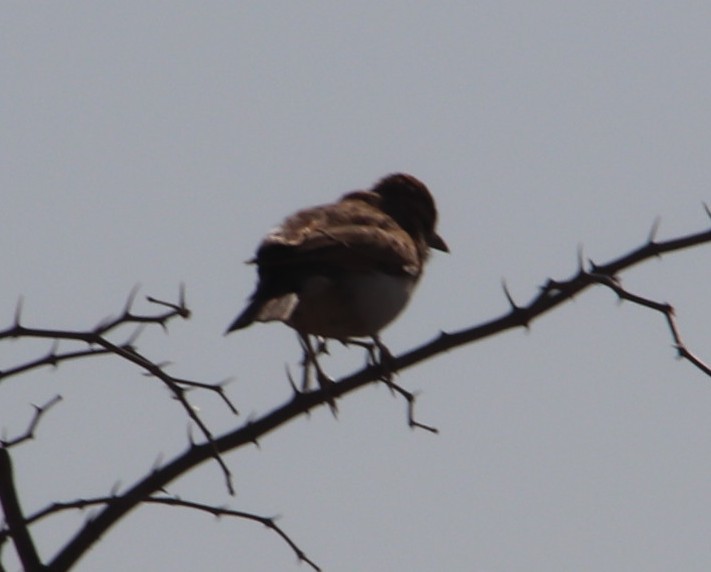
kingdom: Animalia
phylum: Chordata
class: Aves
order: Passeriformes
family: Alaudidae
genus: Calendulauda
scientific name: Calendulauda africanoides
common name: Fawn-colored lark
